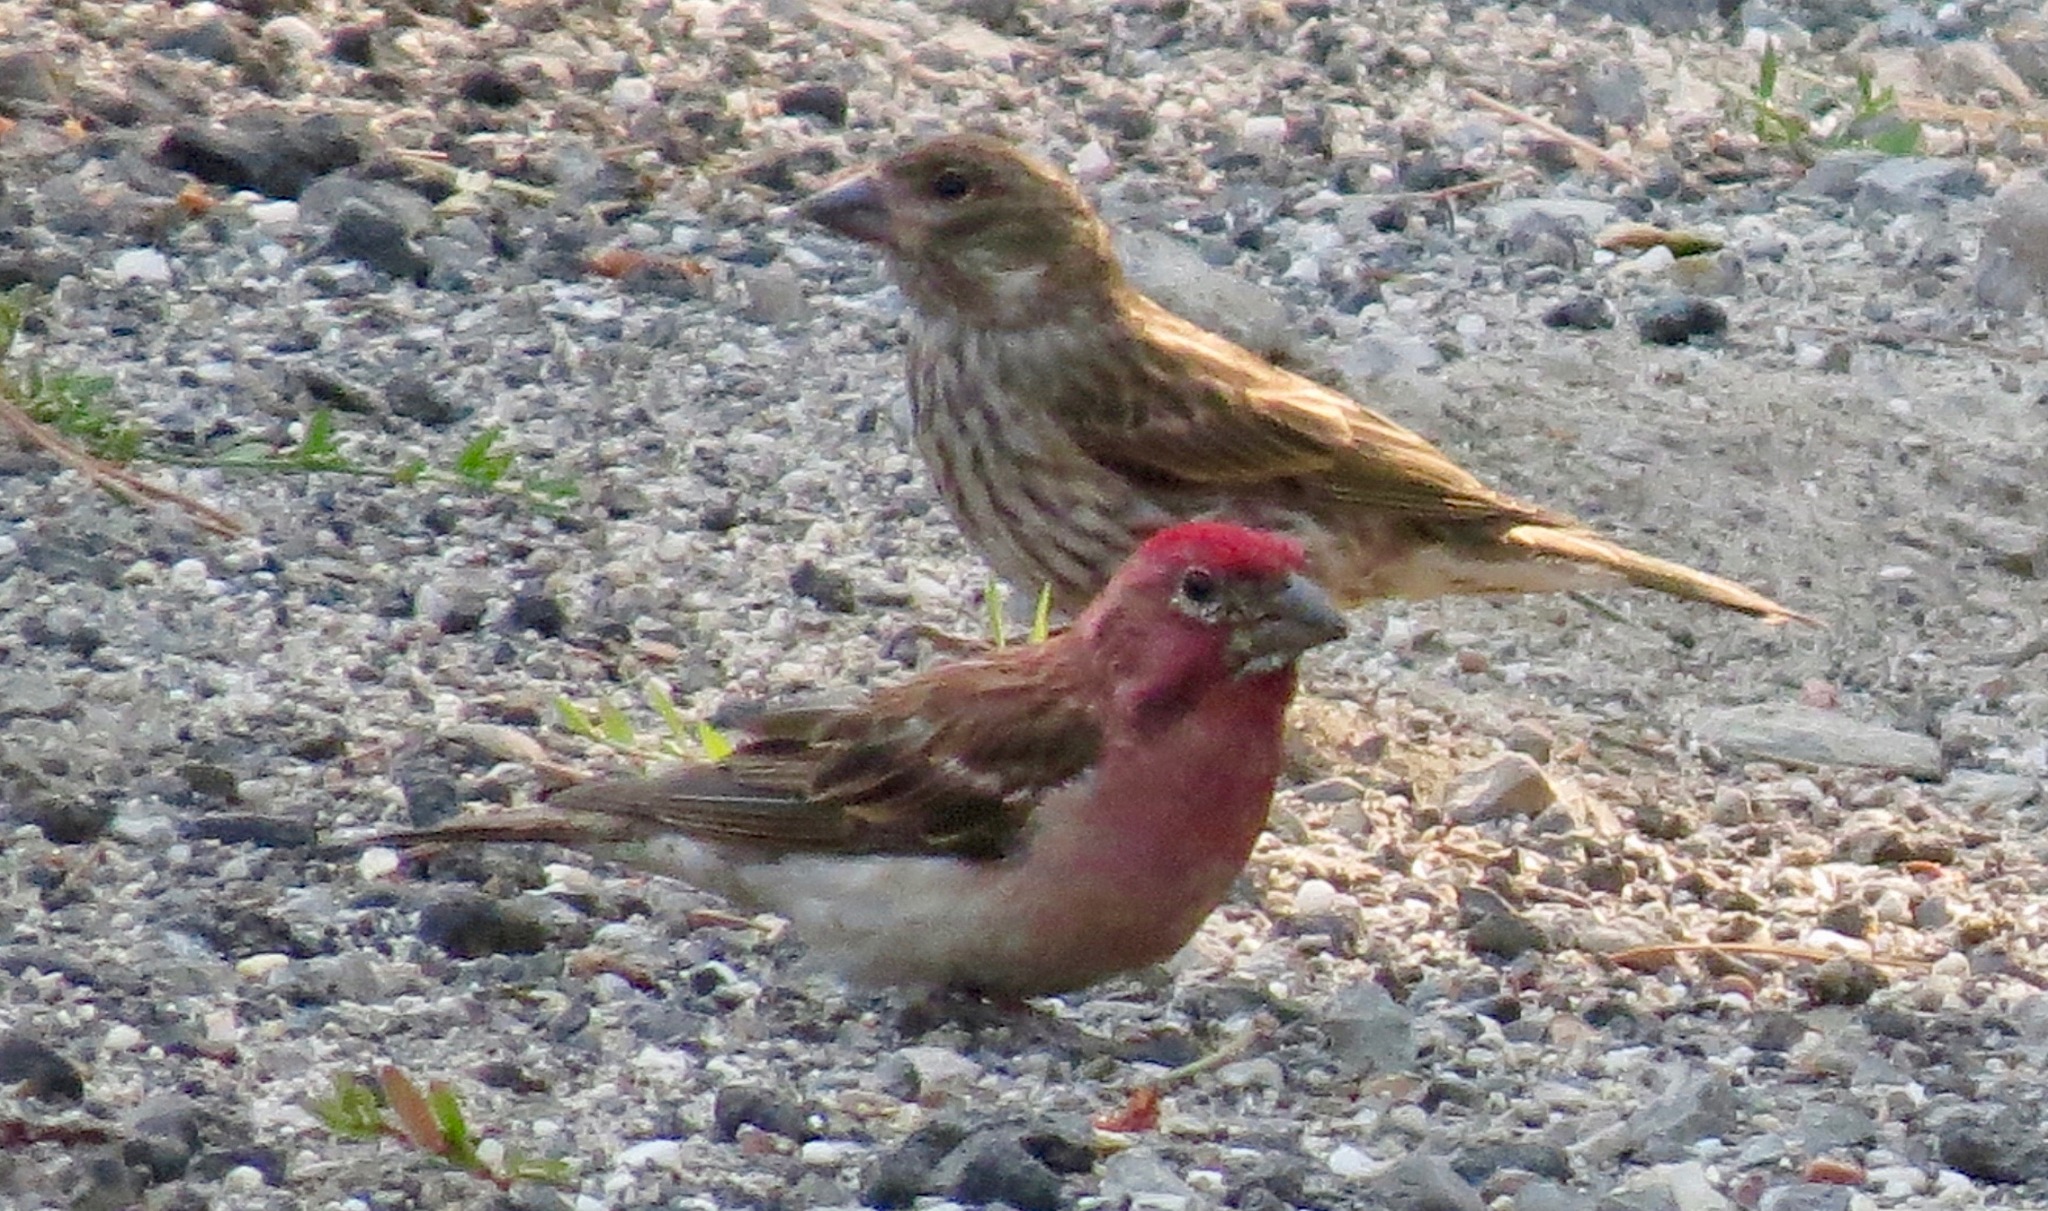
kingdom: Animalia
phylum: Chordata
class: Aves
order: Passeriformes
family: Fringillidae
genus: Haemorhous
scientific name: Haemorhous cassinii
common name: Cassin's finch
